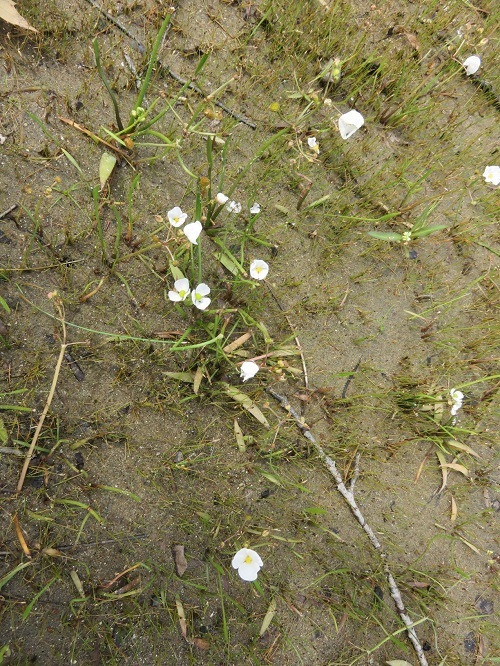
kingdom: Plantae
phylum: Tracheophyta
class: Liliopsida
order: Alismatales
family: Alismataceae
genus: Sagittaria
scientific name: Sagittaria graminea
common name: Grass-leaved arrowhead
